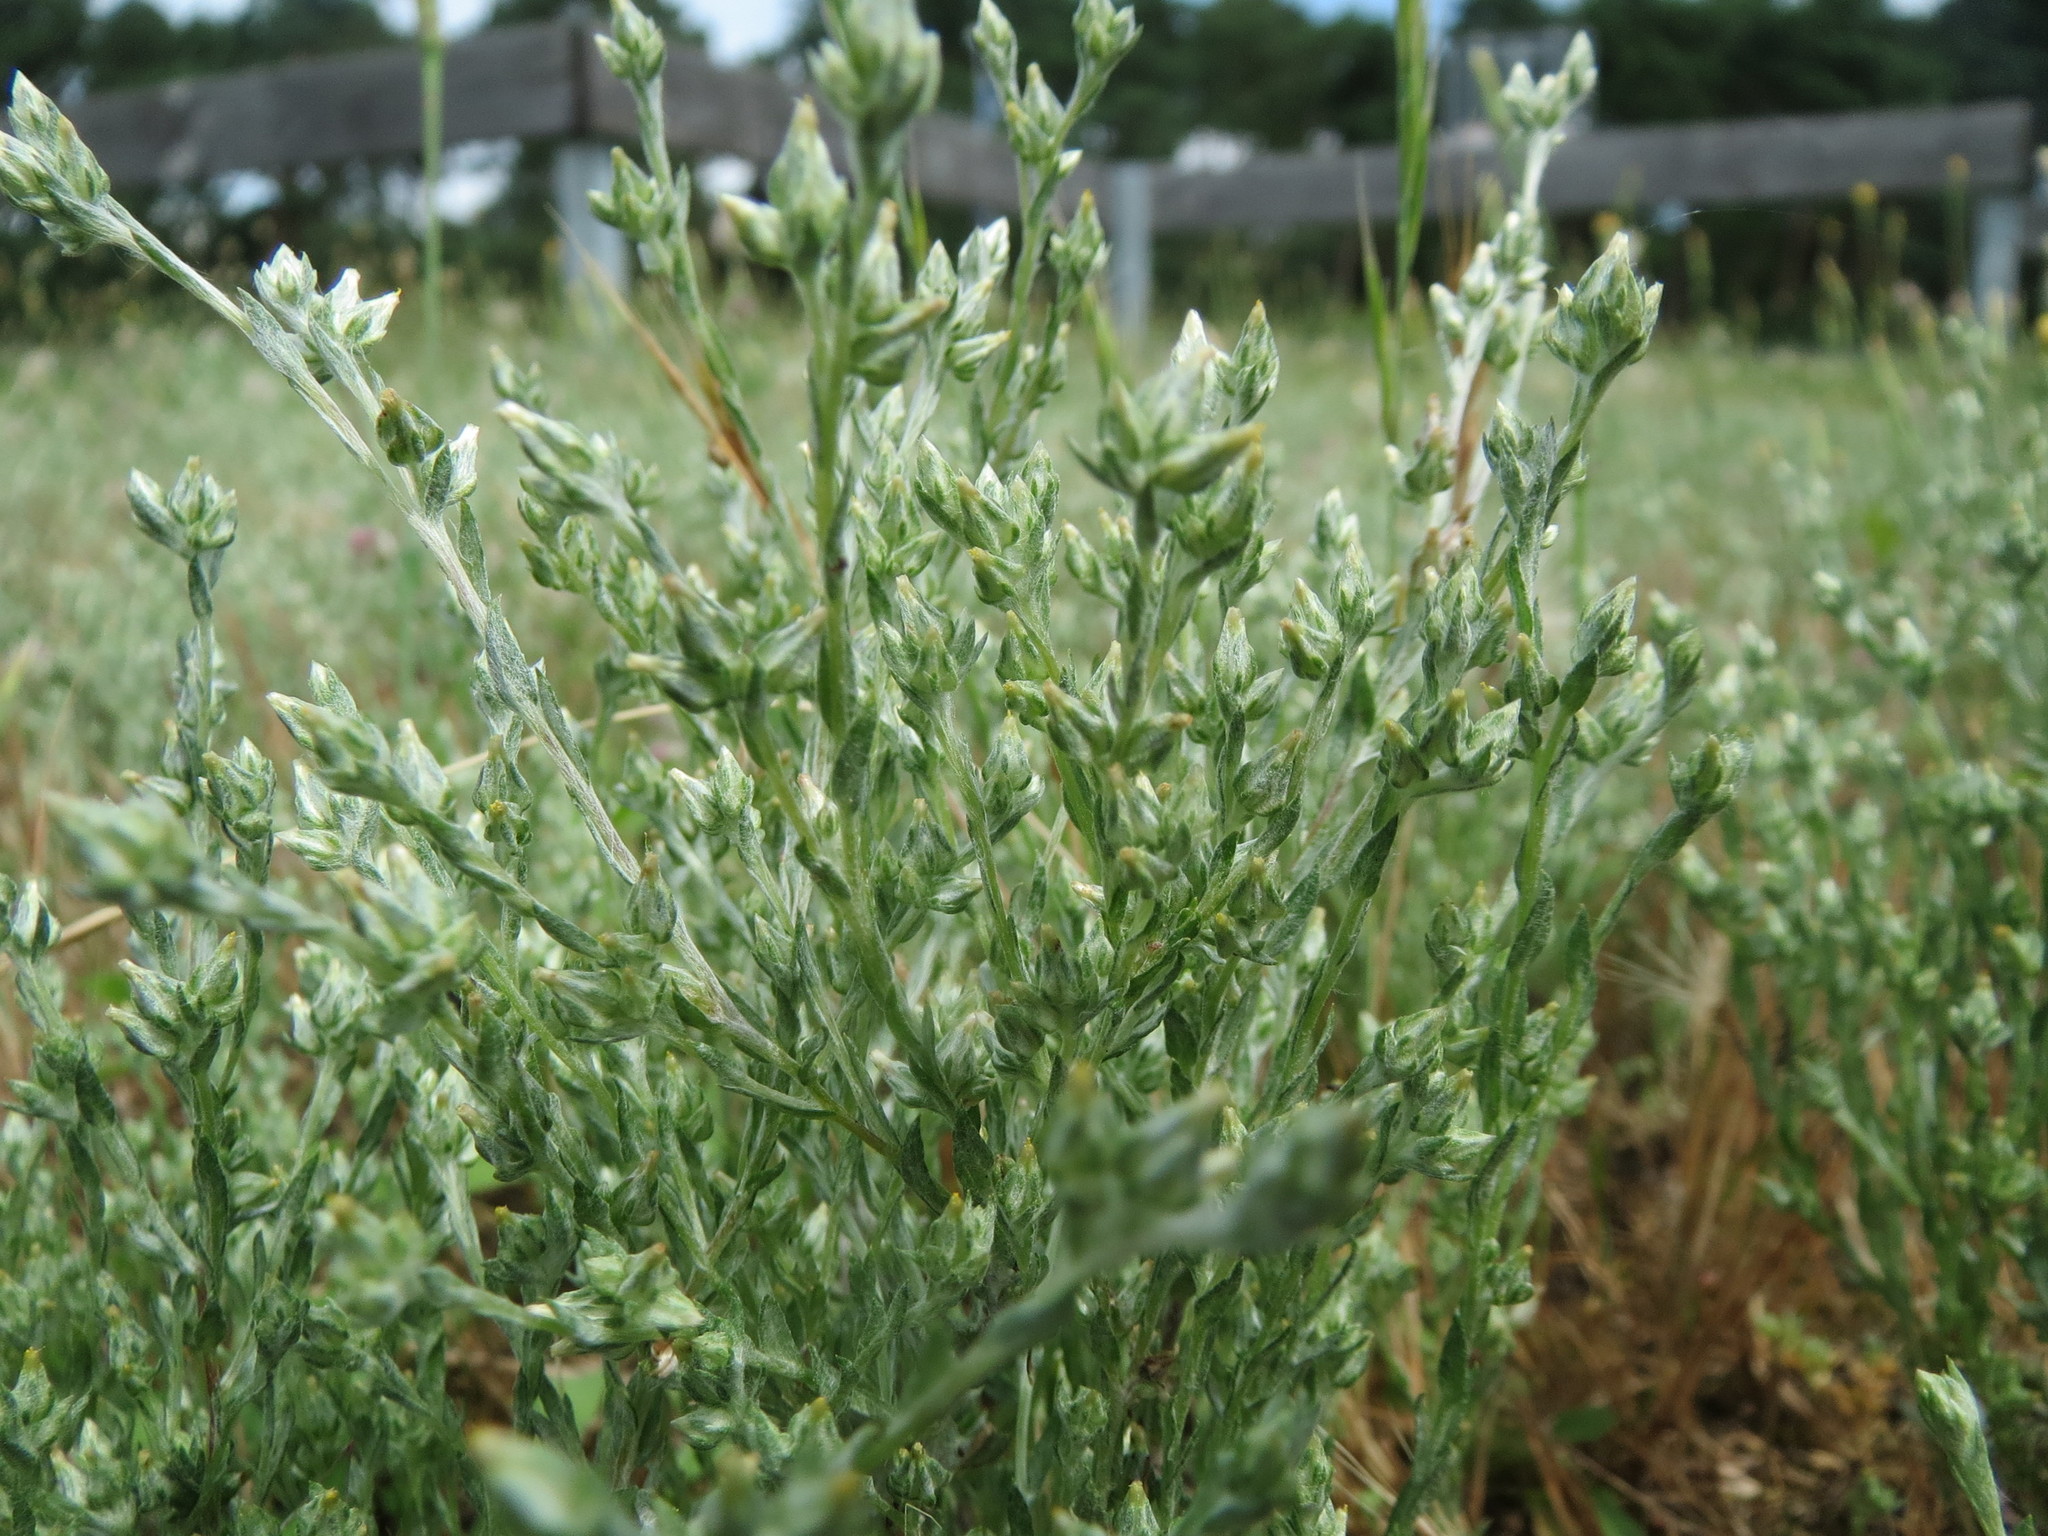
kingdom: Plantae
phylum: Tracheophyta
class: Magnoliopsida
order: Asterales
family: Asteraceae
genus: Logfia
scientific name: Logfia minima
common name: Little cottonrose
